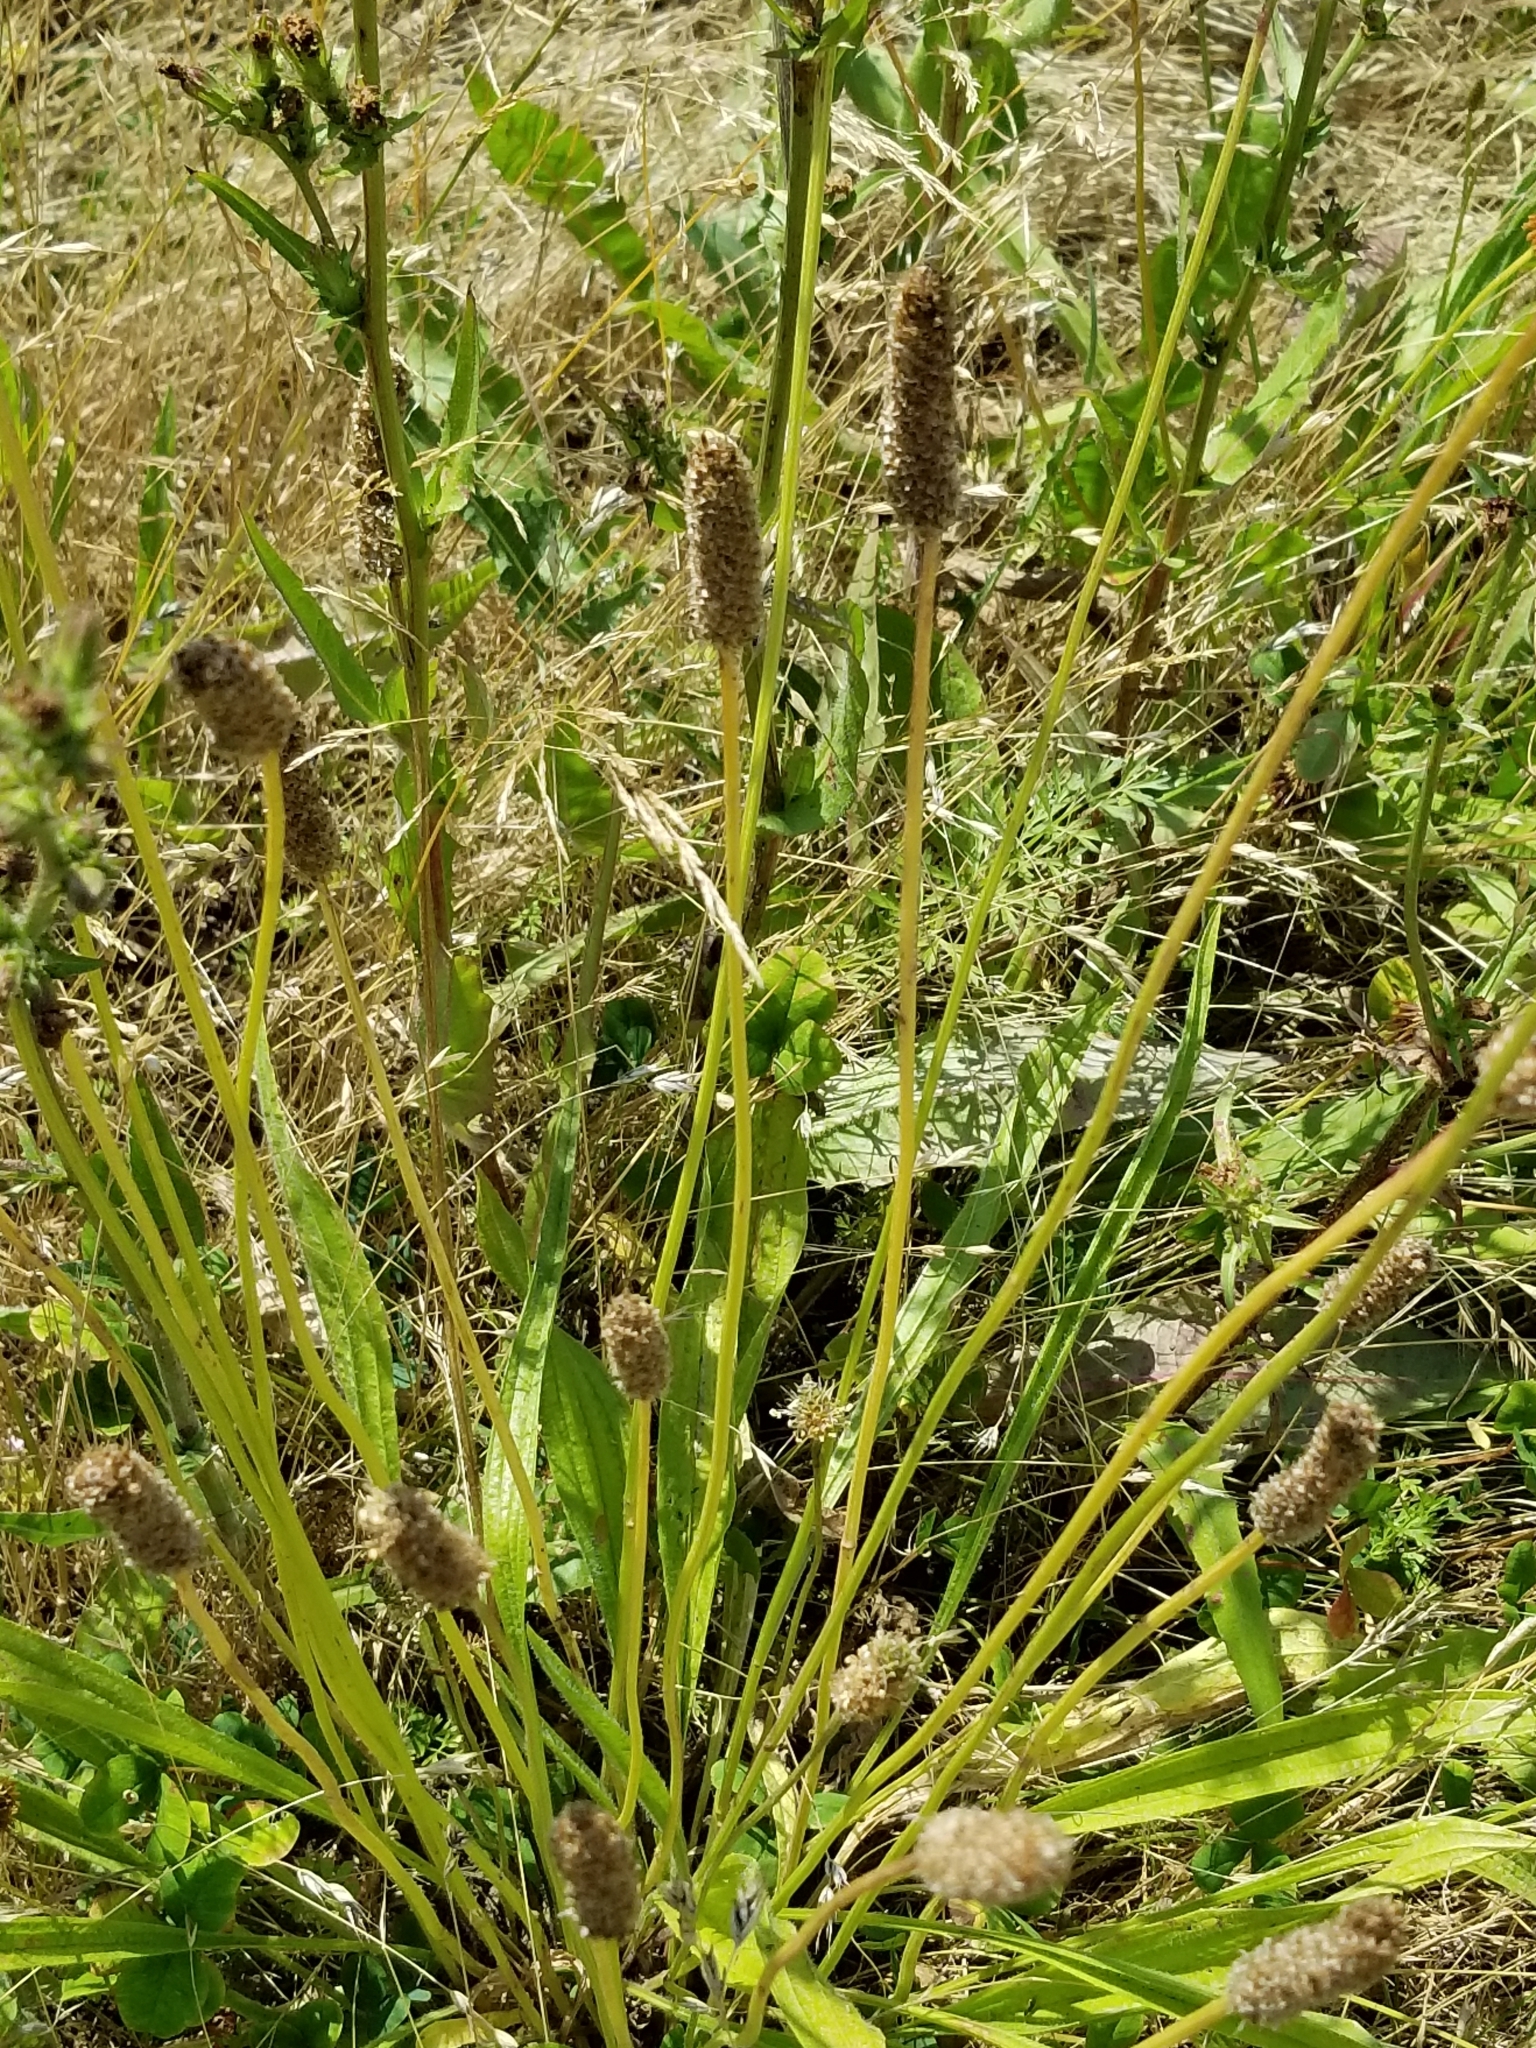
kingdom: Plantae
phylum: Tracheophyta
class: Magnoliopsida
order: Lamiales
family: Plantaginaceae
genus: Plantago
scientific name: Plantago lanceolata
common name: Ribwort plantain
